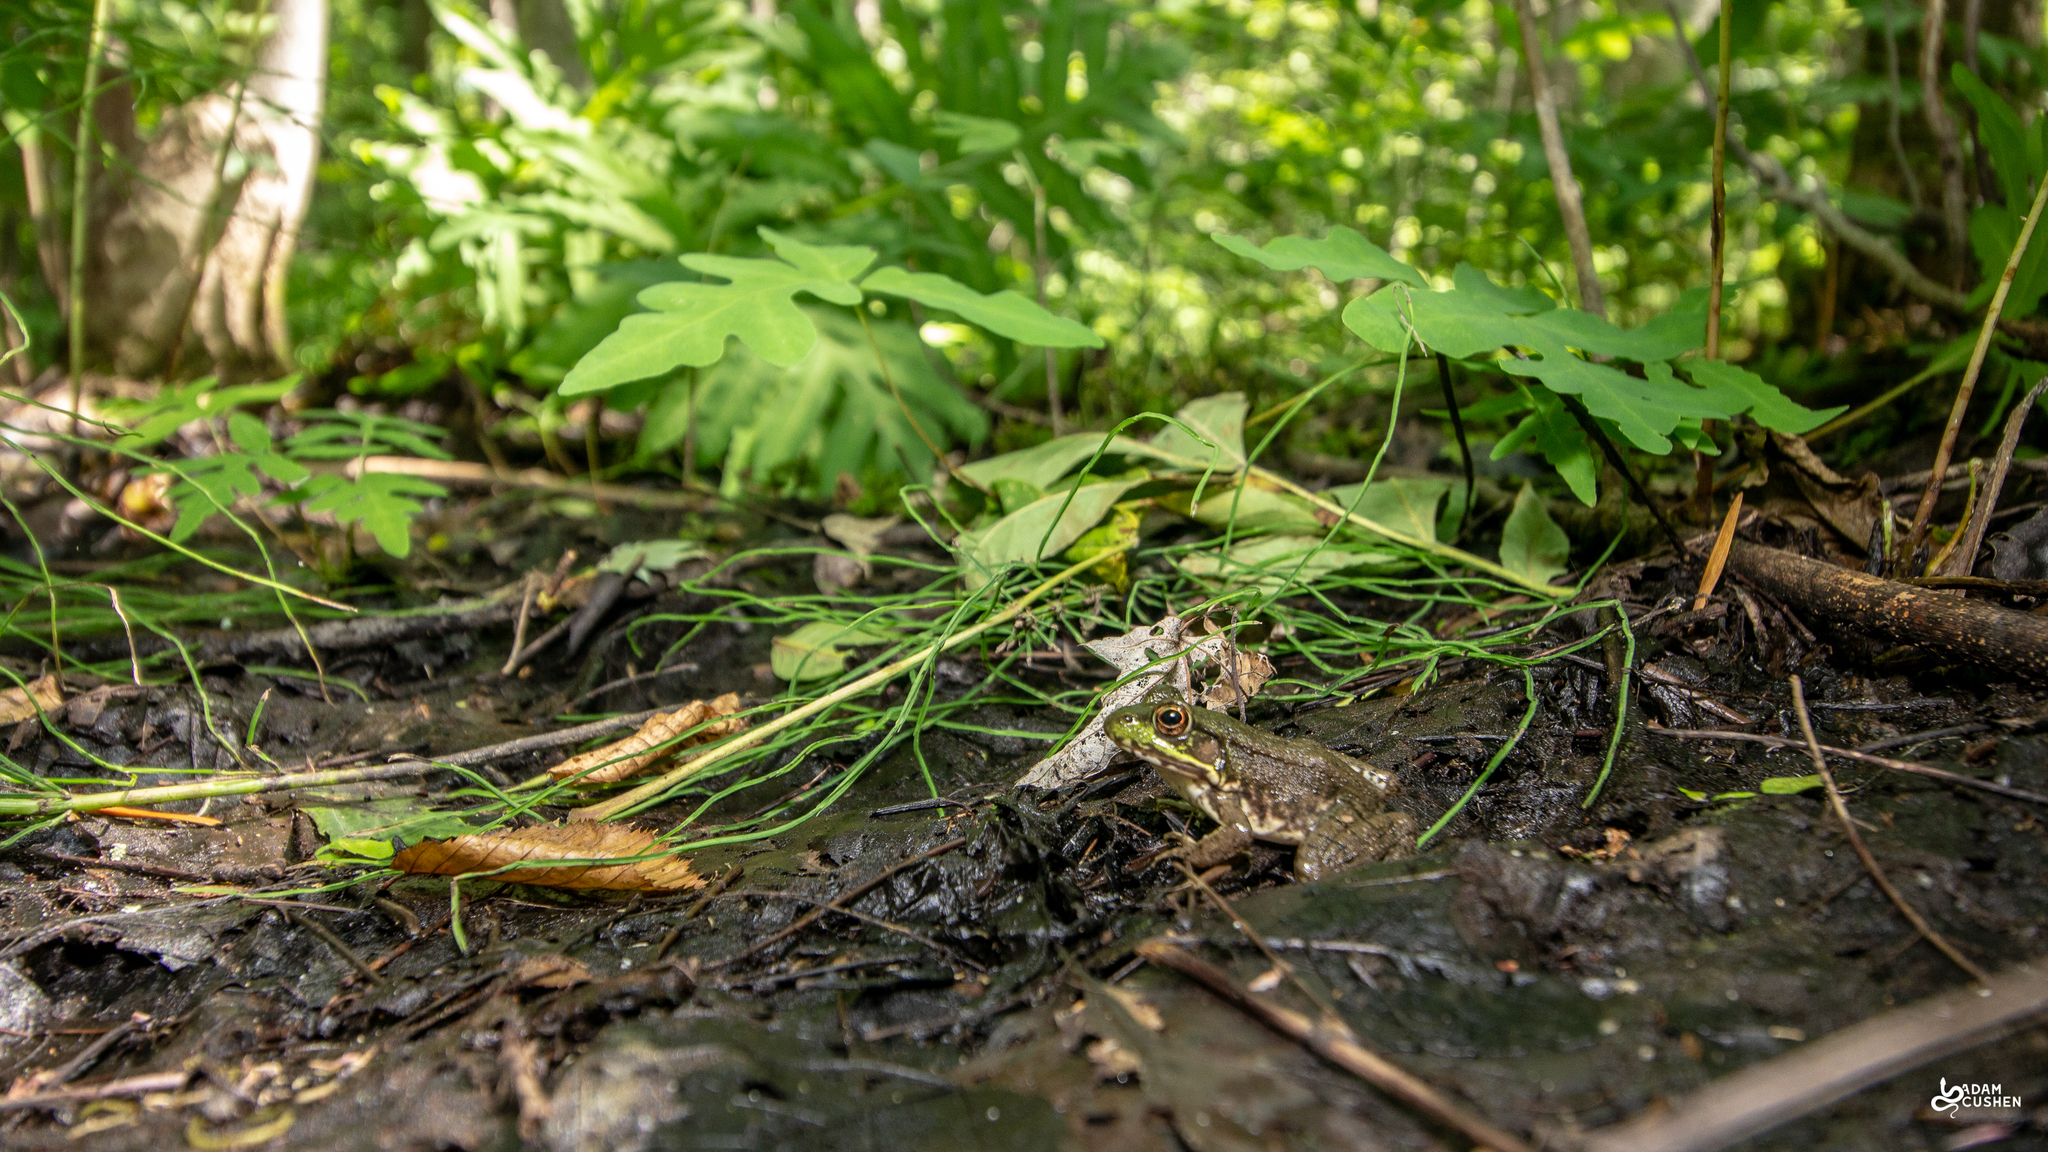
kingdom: Animalia
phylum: Chordata
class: Amphibia
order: Anura
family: Ranidae
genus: Lithobates
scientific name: Lithobates clamitans
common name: Green frog
